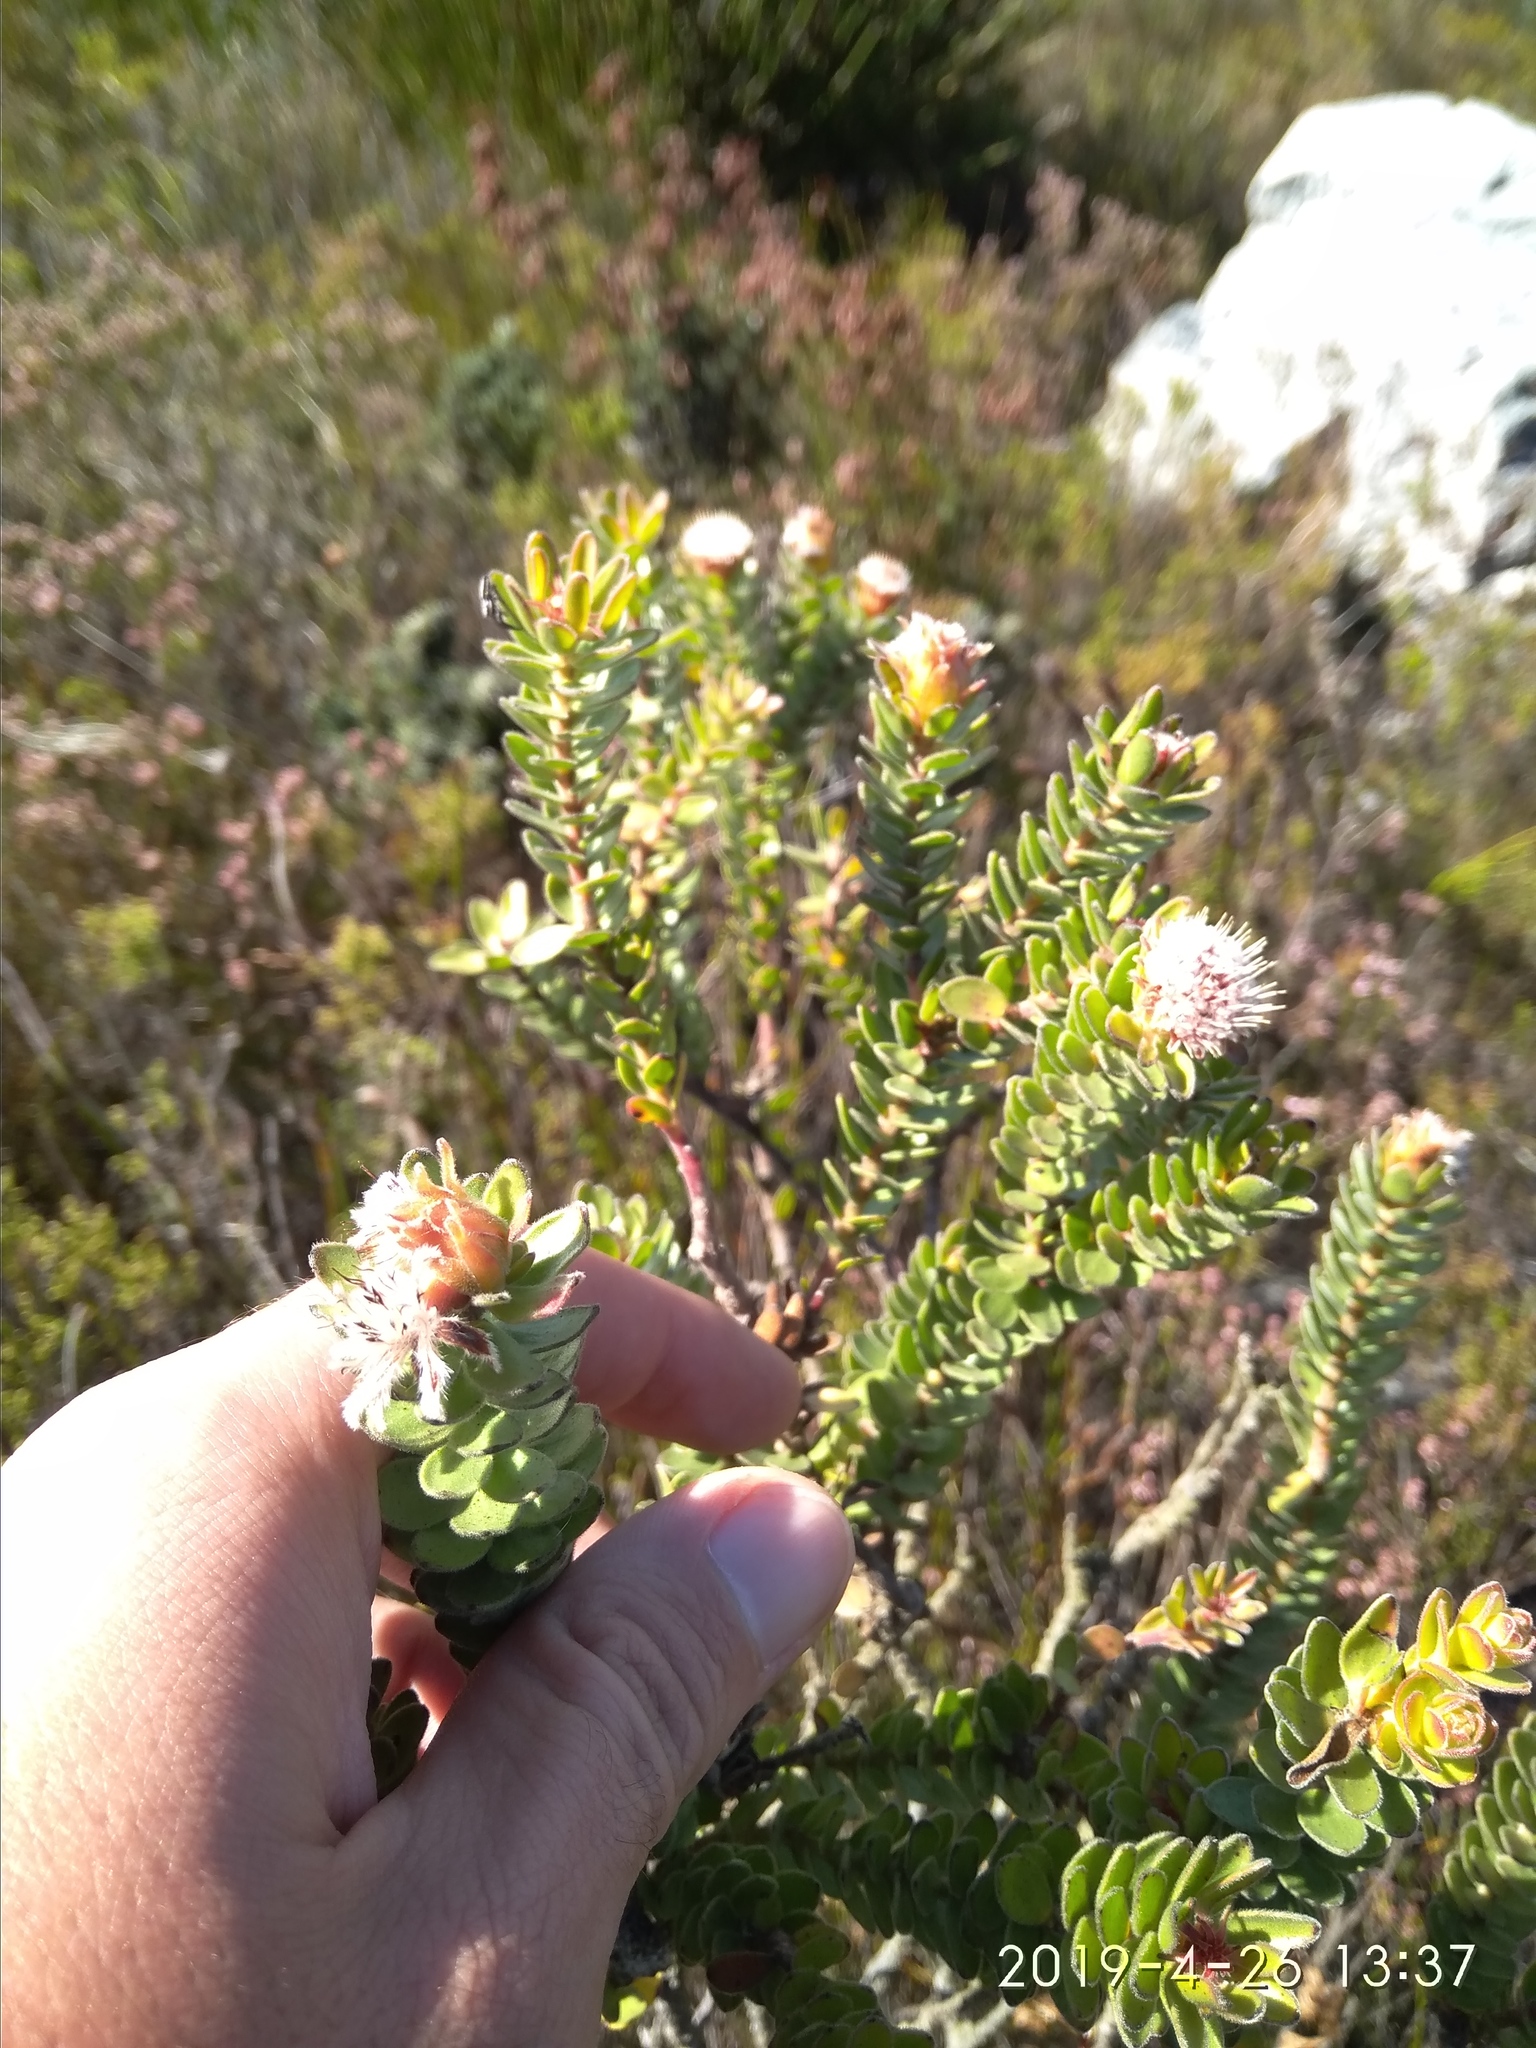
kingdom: Plantae
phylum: Tracheophyta
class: Magnoliopsida
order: Proteales
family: Proteaceae
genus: Diastella
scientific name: Diastella thymelaeoides
